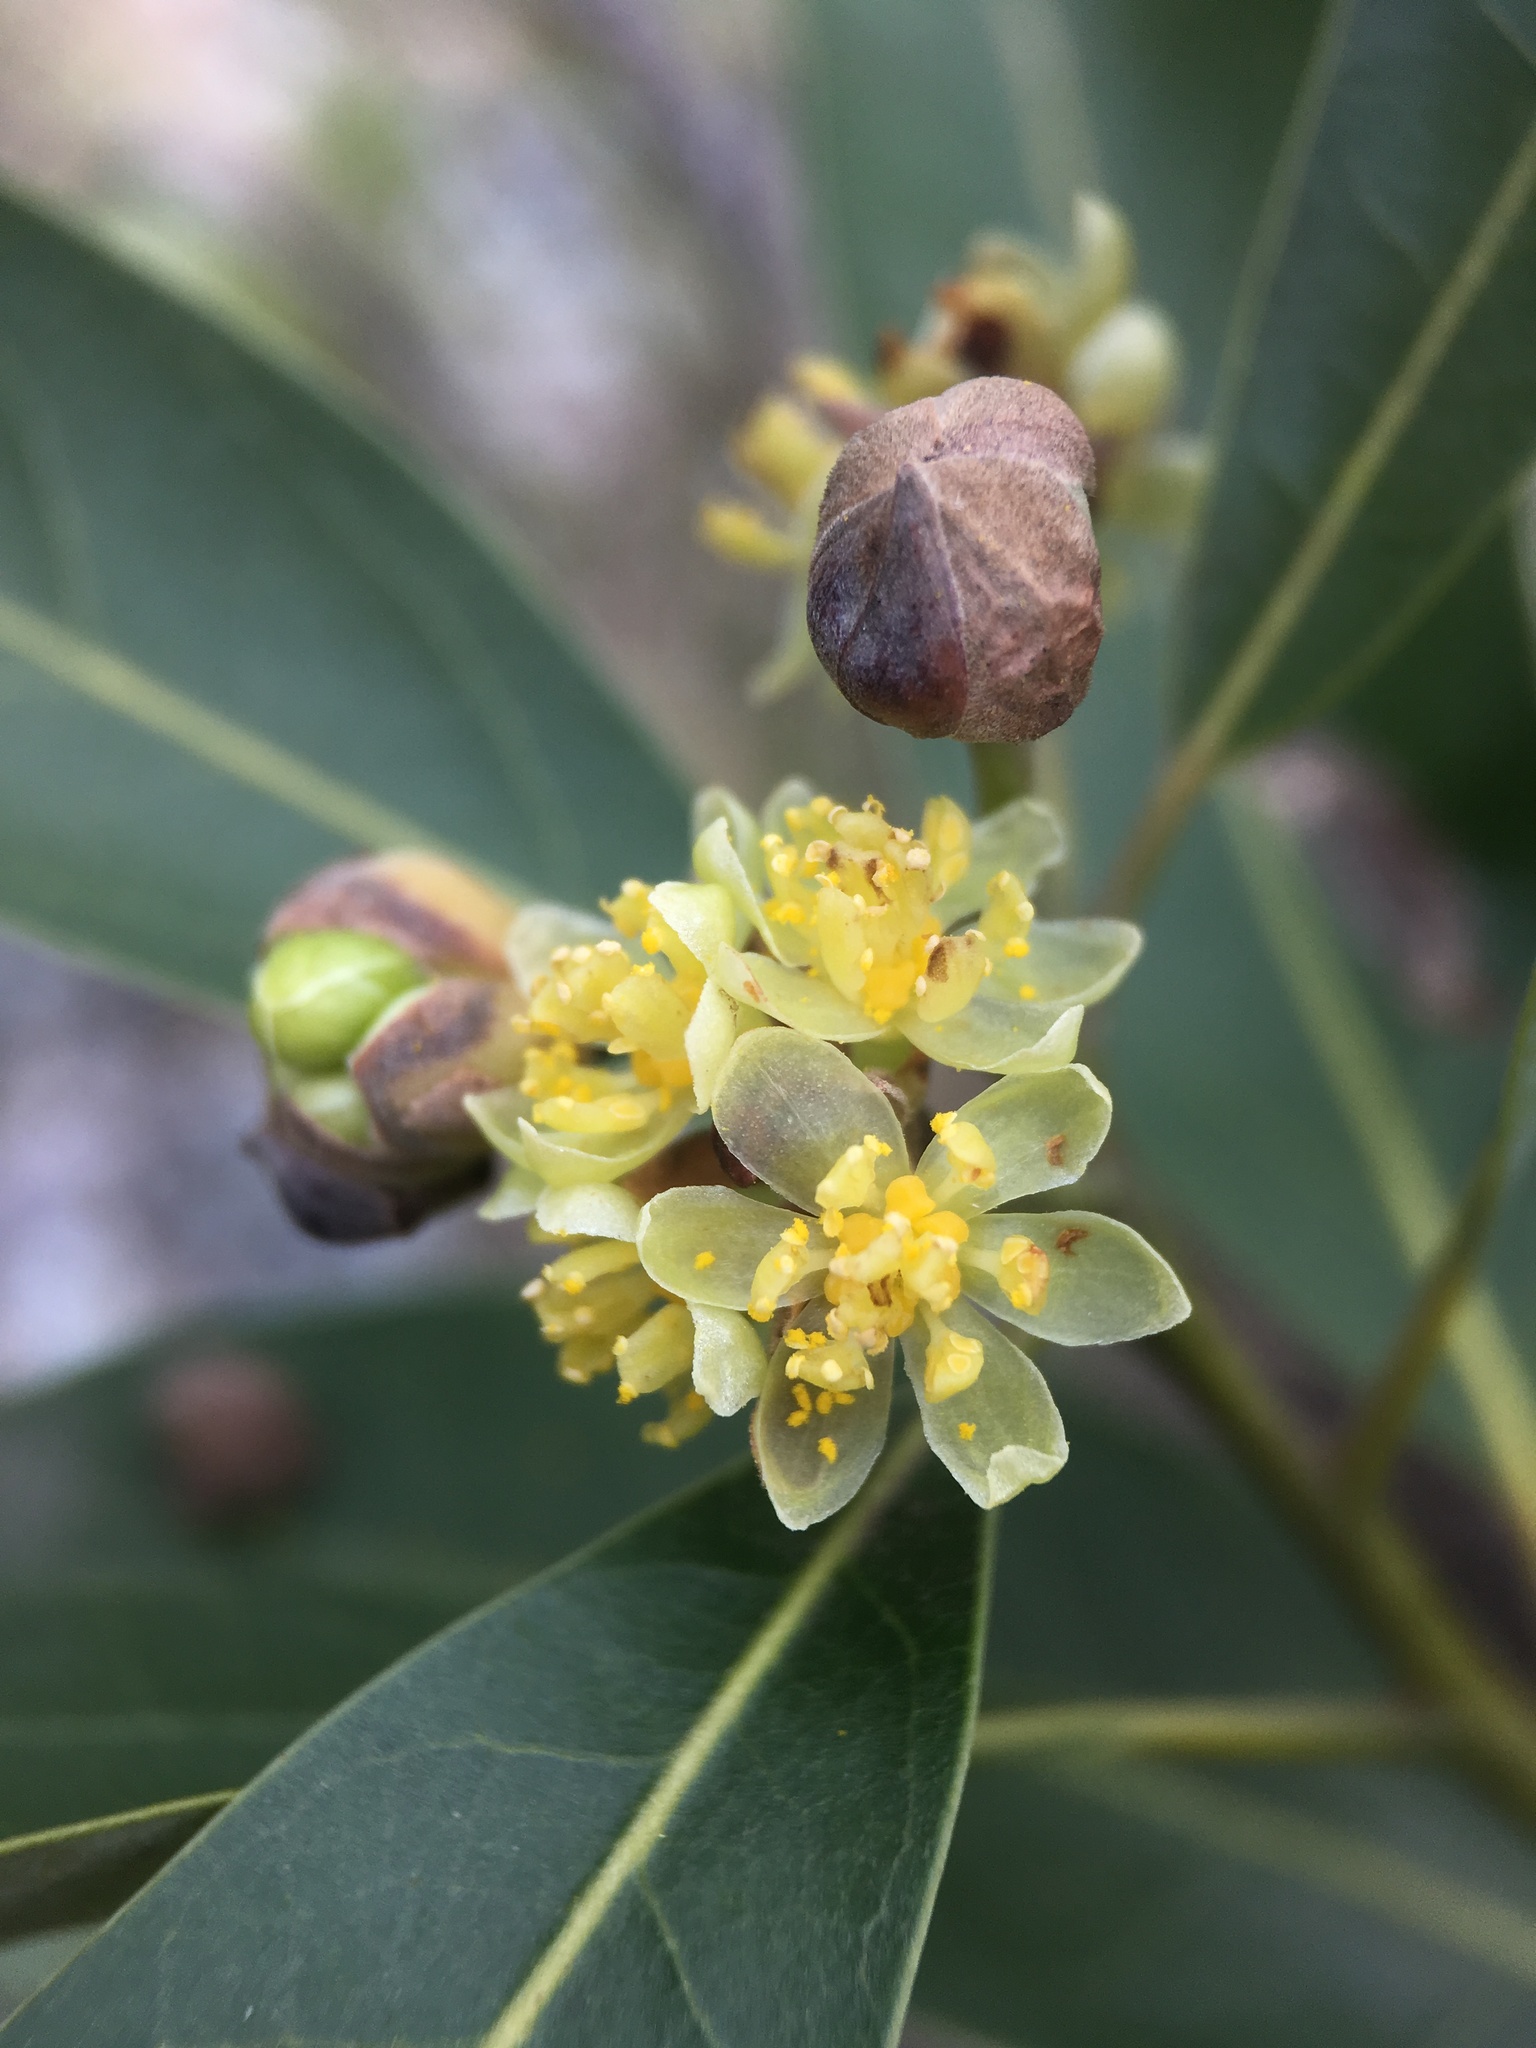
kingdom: Plantae
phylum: Tracheophyta
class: Magnoliopsida
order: Laurales
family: Lauraceae
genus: Umbellularia
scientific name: Umbellularia californica
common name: California bay
